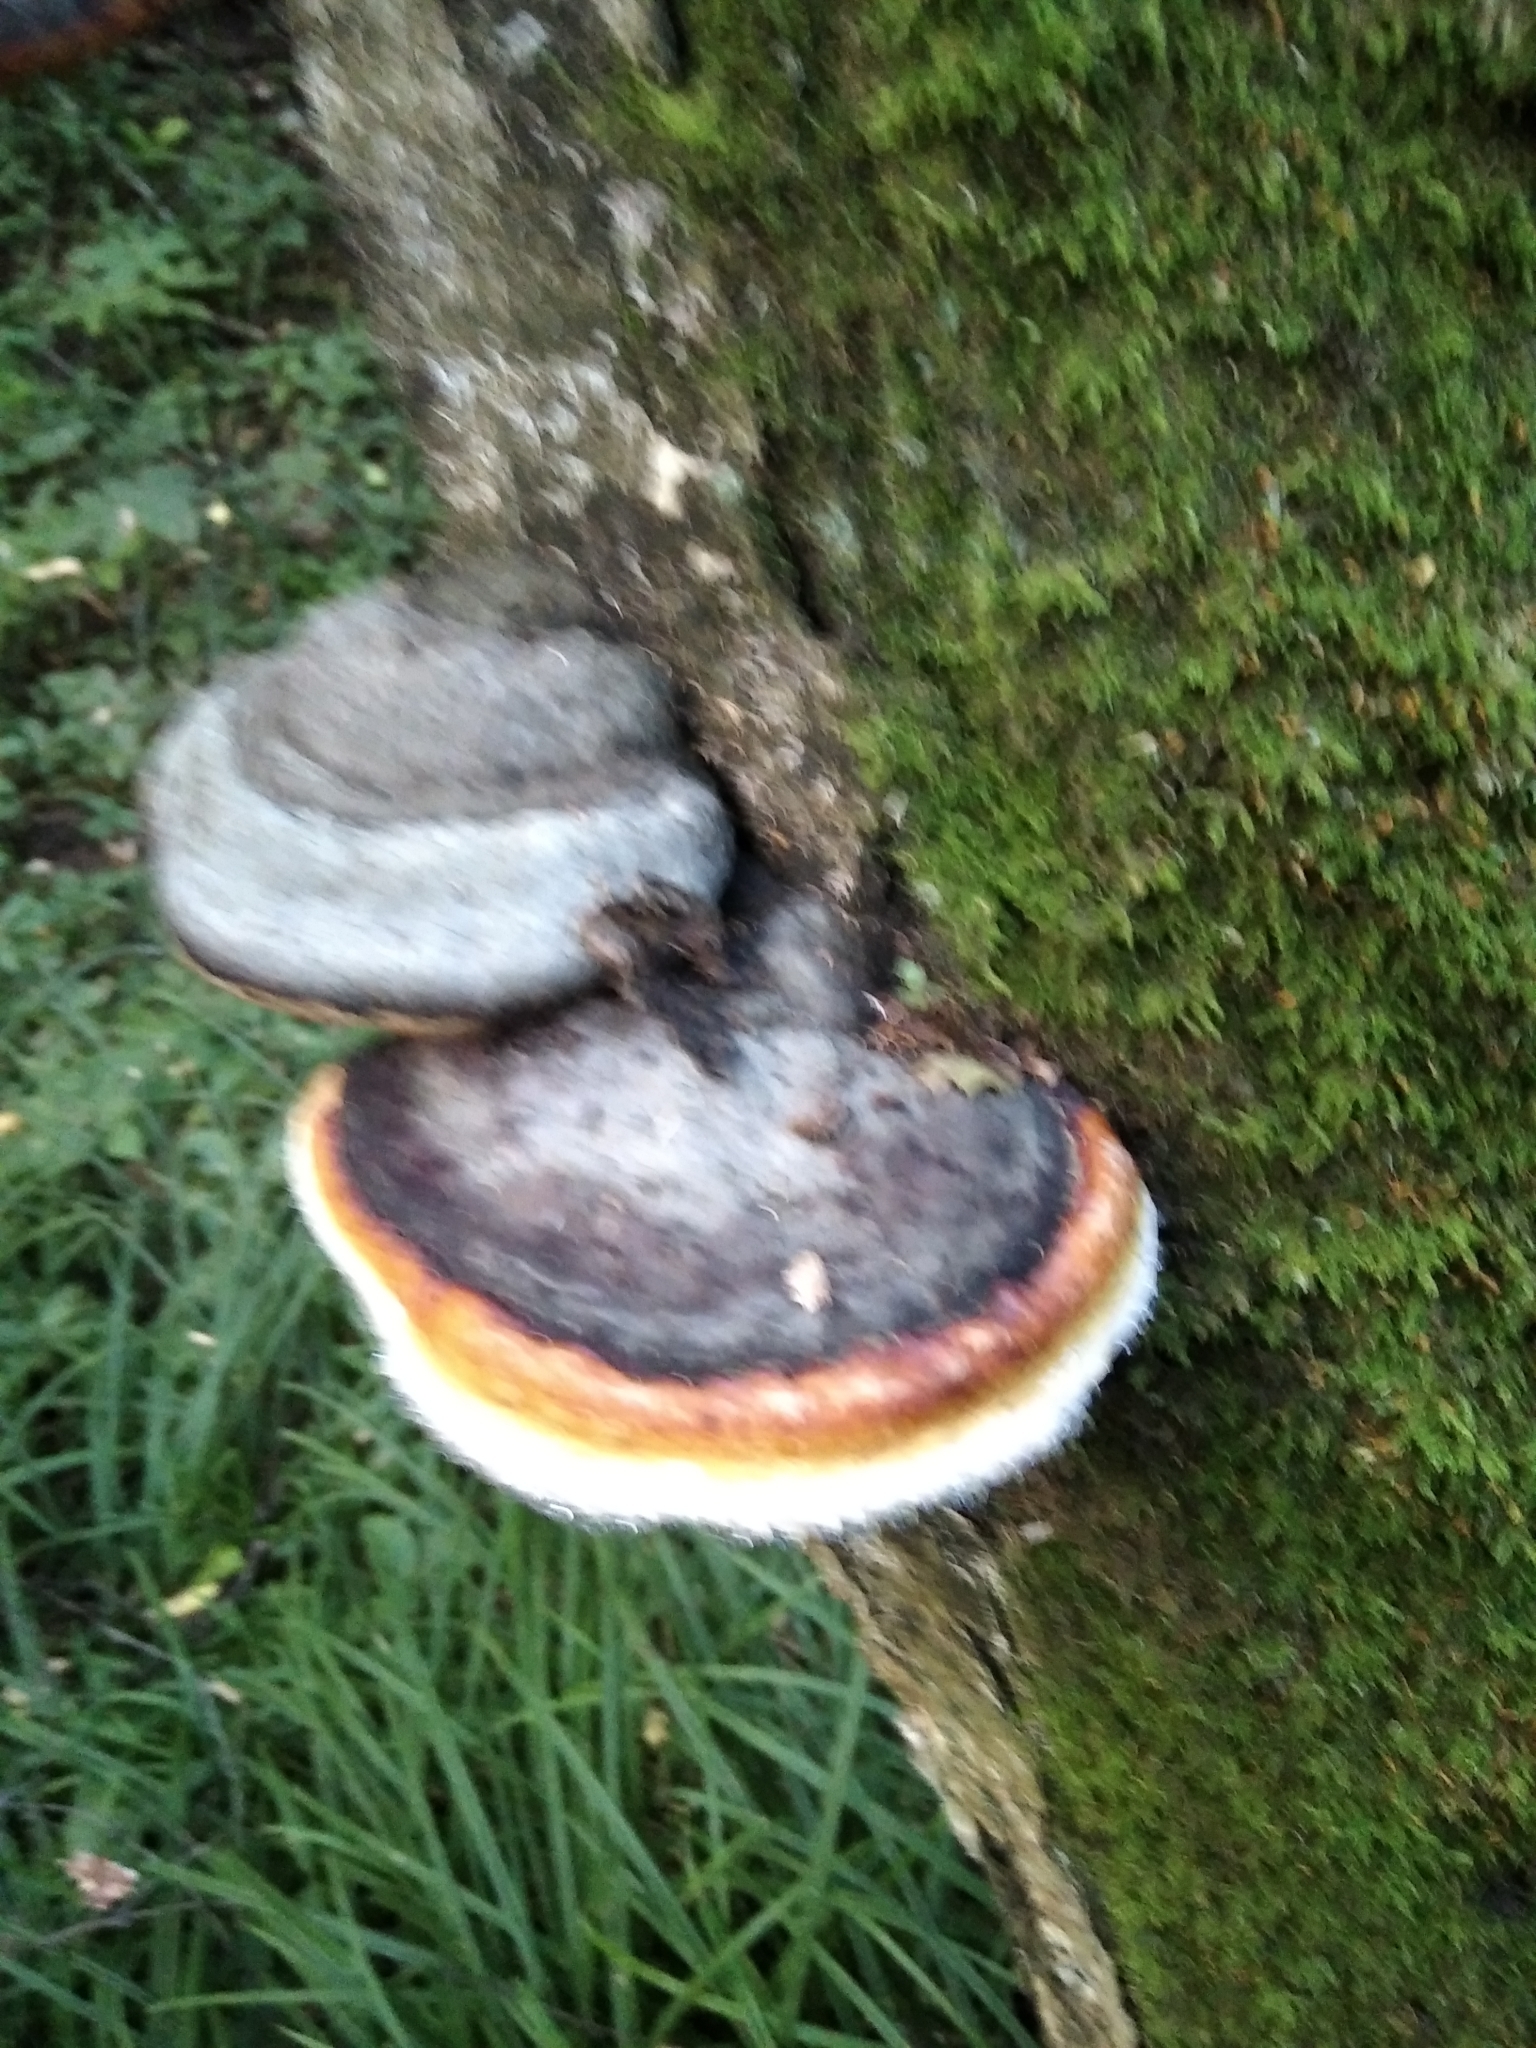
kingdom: Fungi
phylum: Basidiomycota
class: Agaricomycetes
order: Polyporales
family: Fomitopsidaceae
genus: Fomitopsis
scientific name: Fomitopsis pinicola
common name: Red-belted bracket
